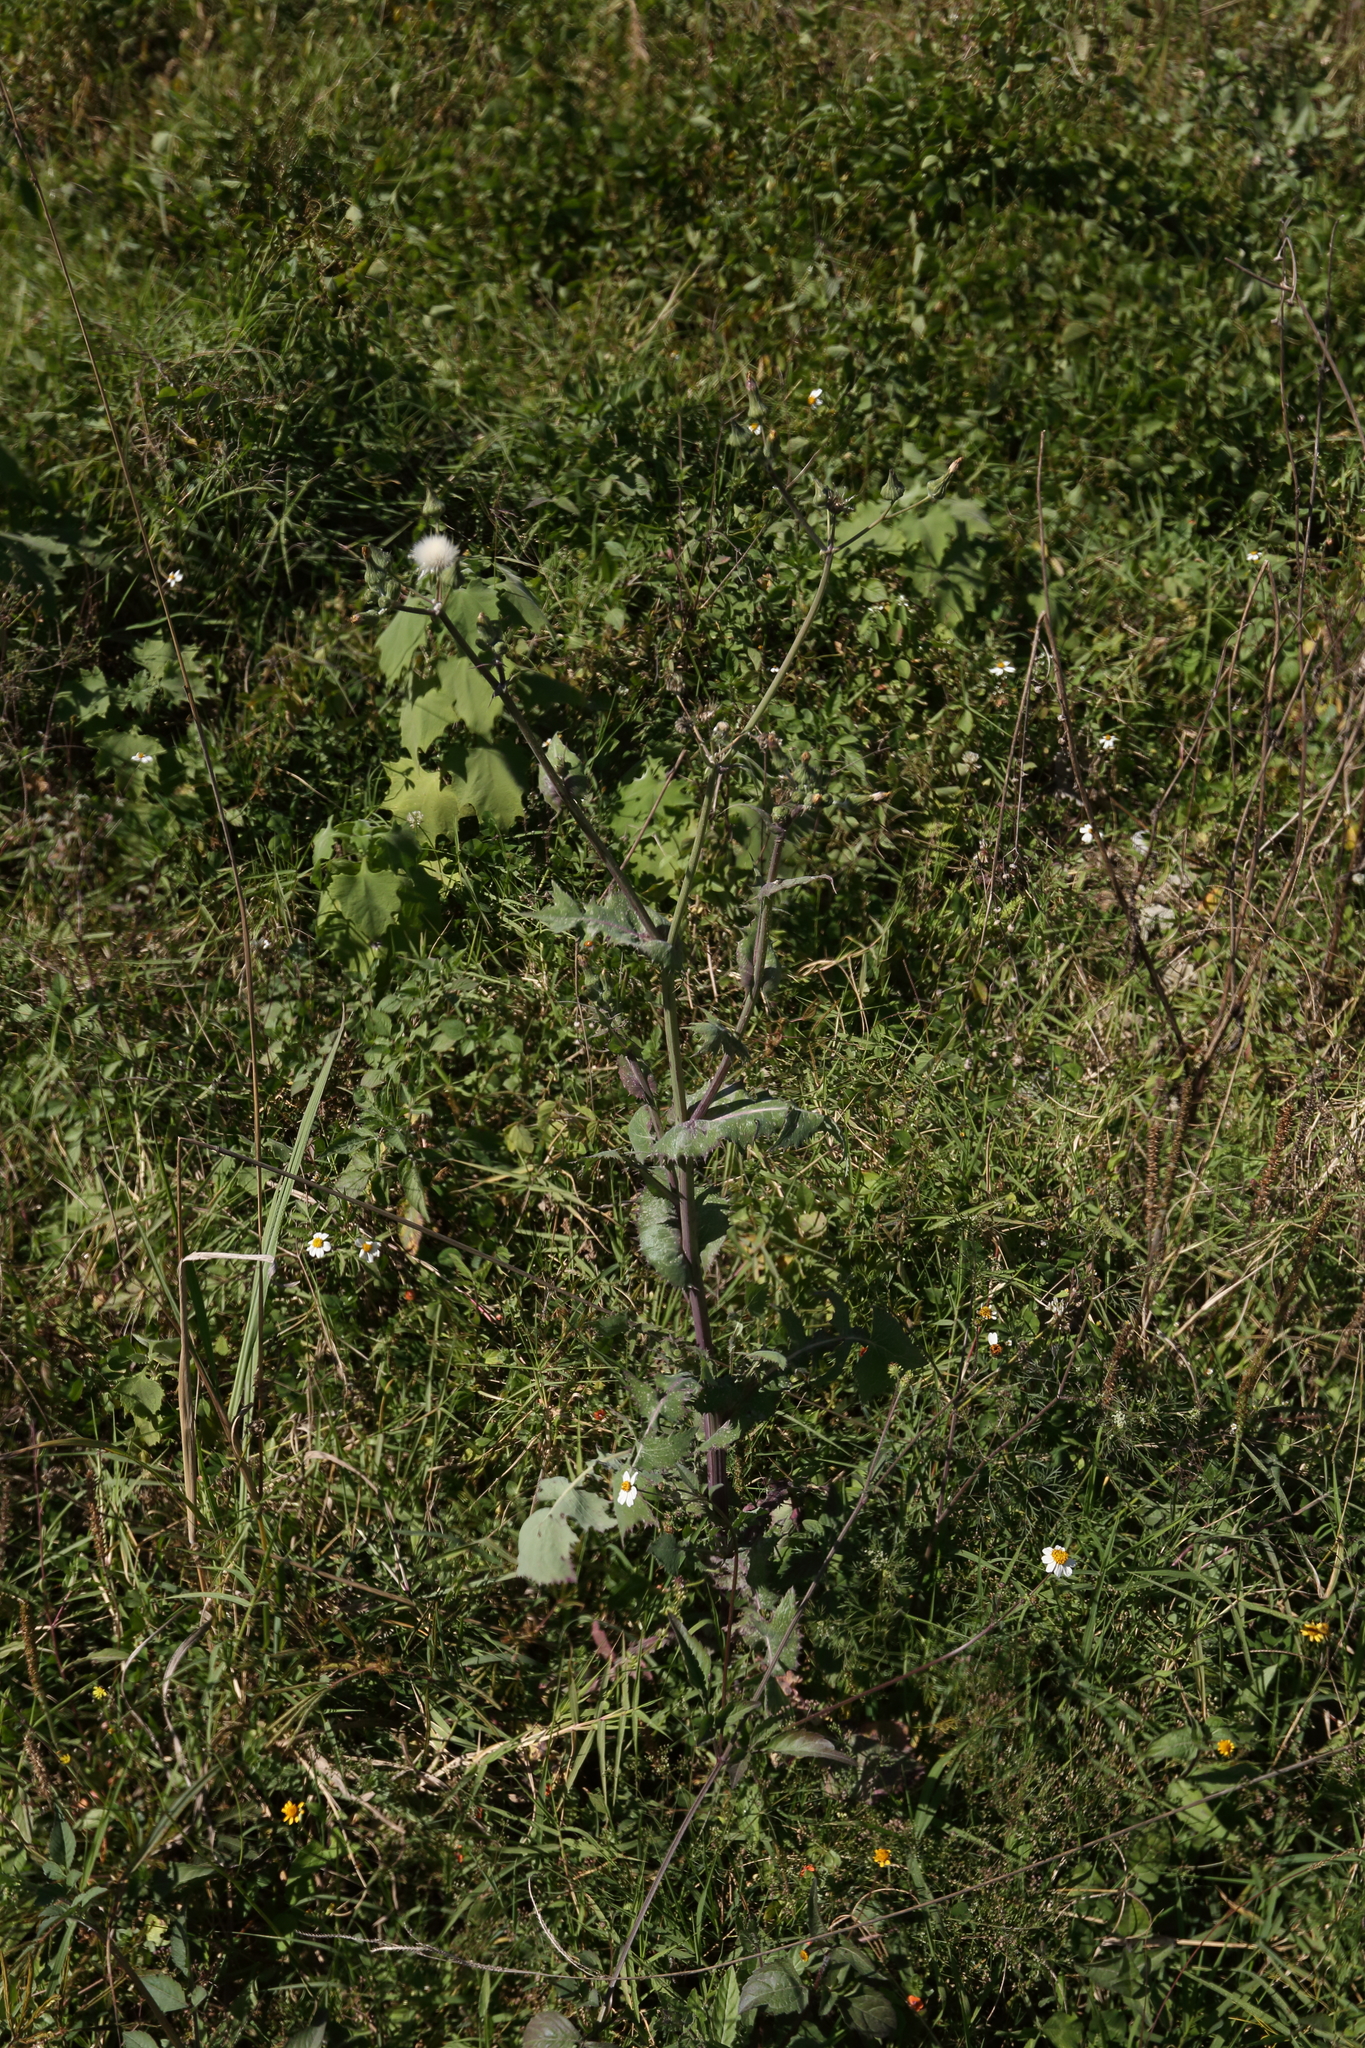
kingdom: Plantae
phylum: Tracheophyta
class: Magnoliopsida
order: Asterales
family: Asteraceae
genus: Sonchus
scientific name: Sonchus asper
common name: Prickly sow-thistle
